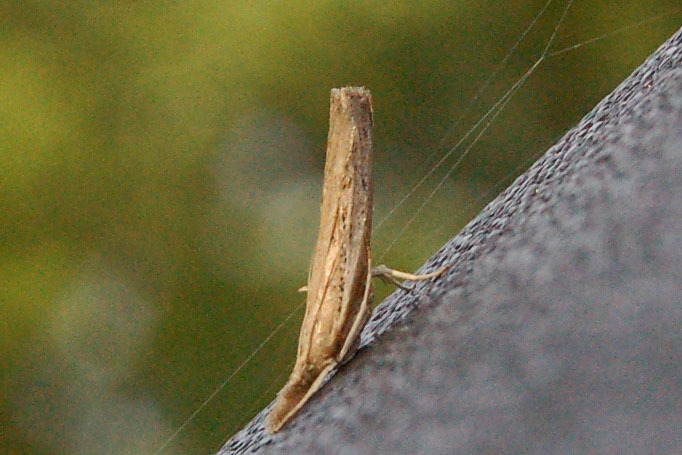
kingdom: Animalia
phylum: Arthropoda
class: Insecta
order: Lepidoptera
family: Crambidae
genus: Fissicrambus
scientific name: Fissicrambus mutabilis
